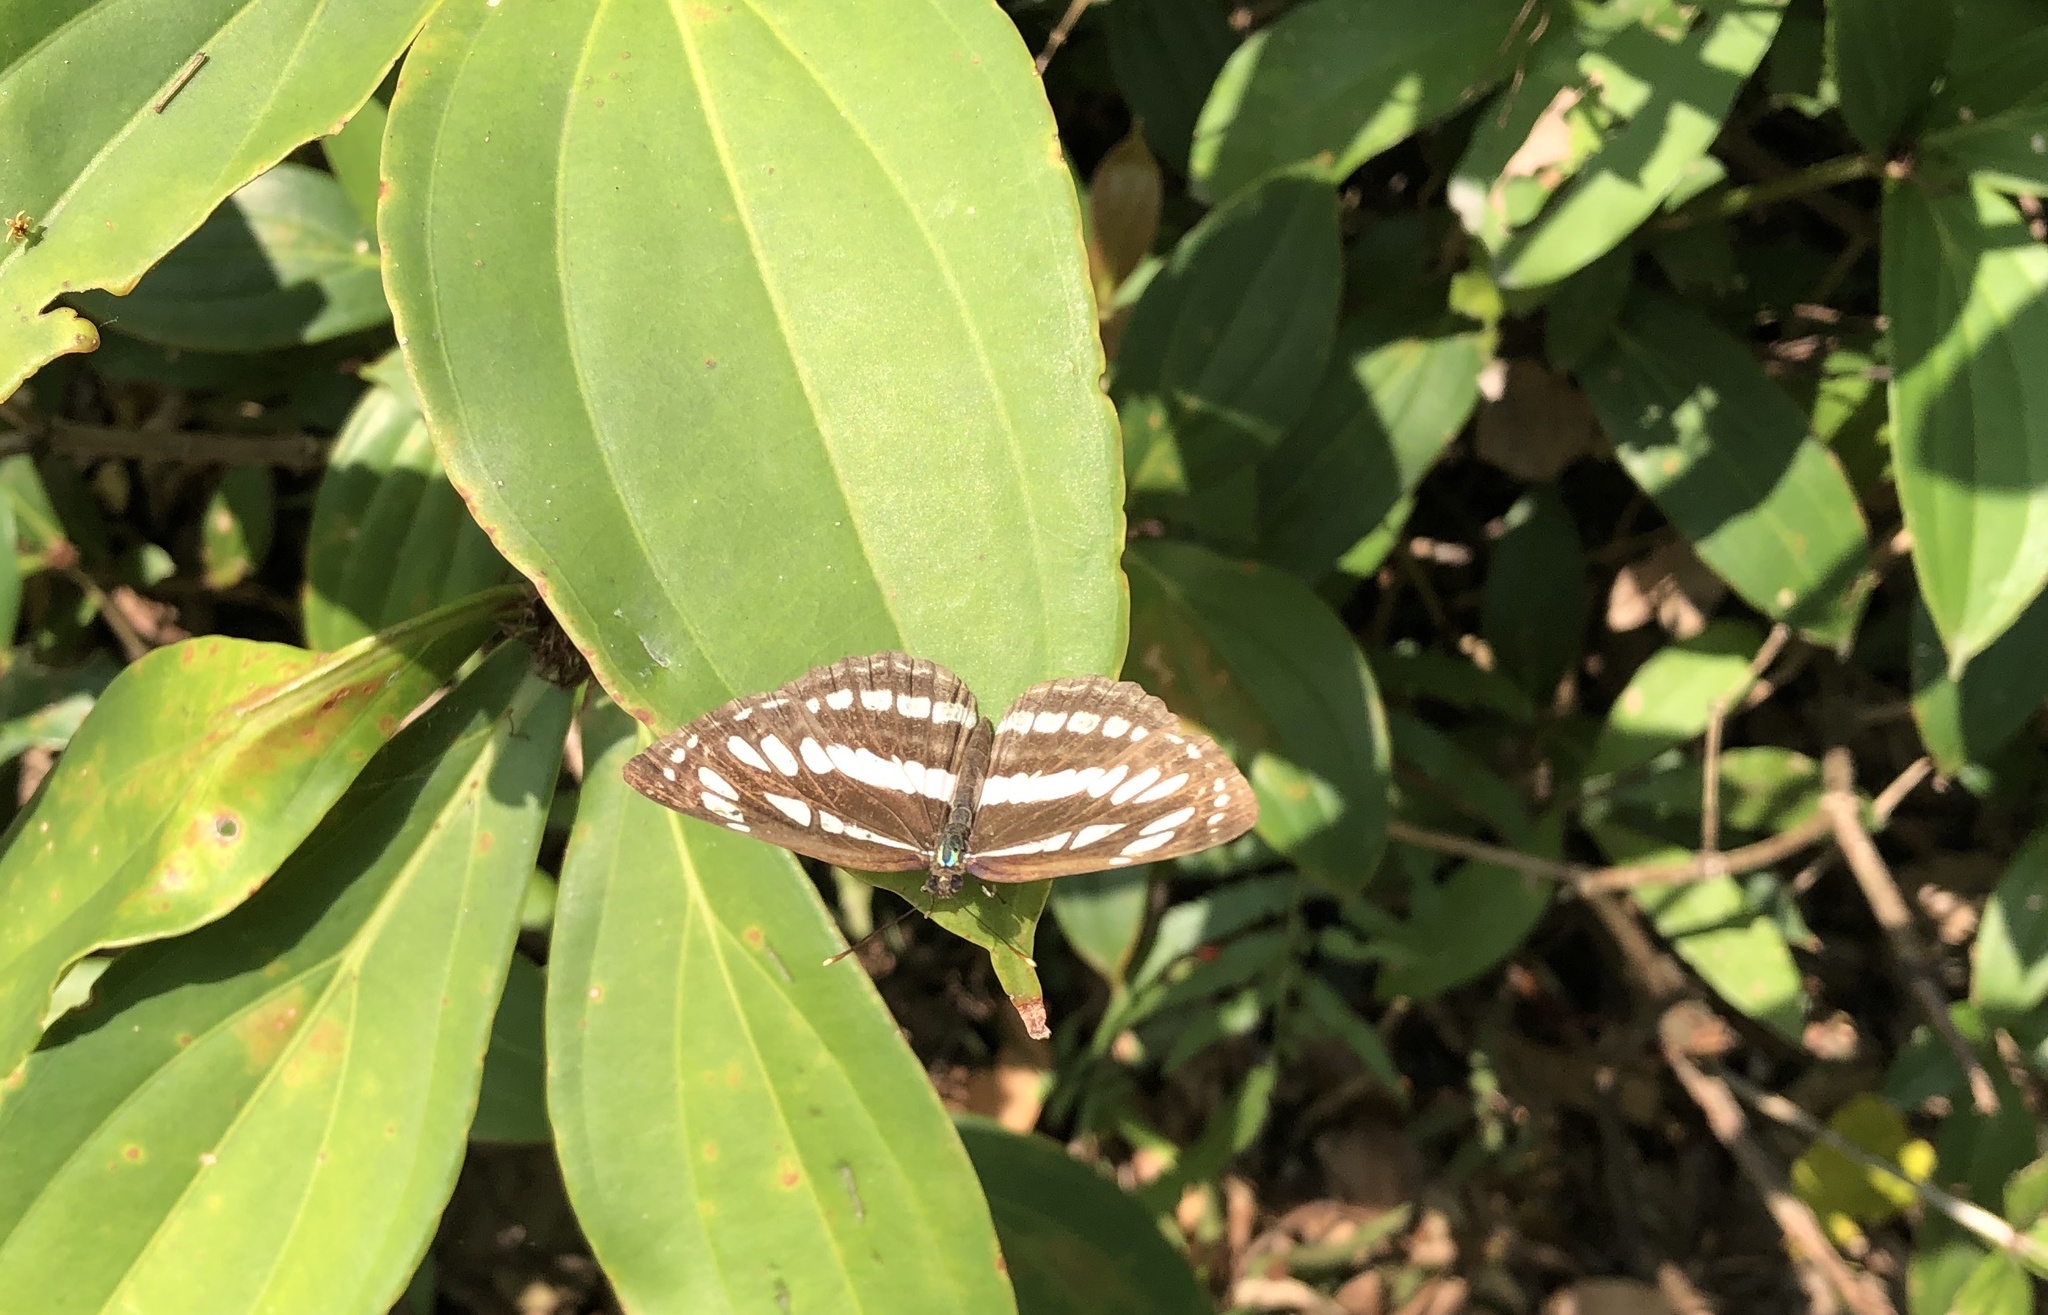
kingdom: Animalia
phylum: Arthropoda
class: Insecta
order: Lepidoptera
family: Nymphalidae
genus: Neptis
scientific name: Neptis hylas
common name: Common sailer
